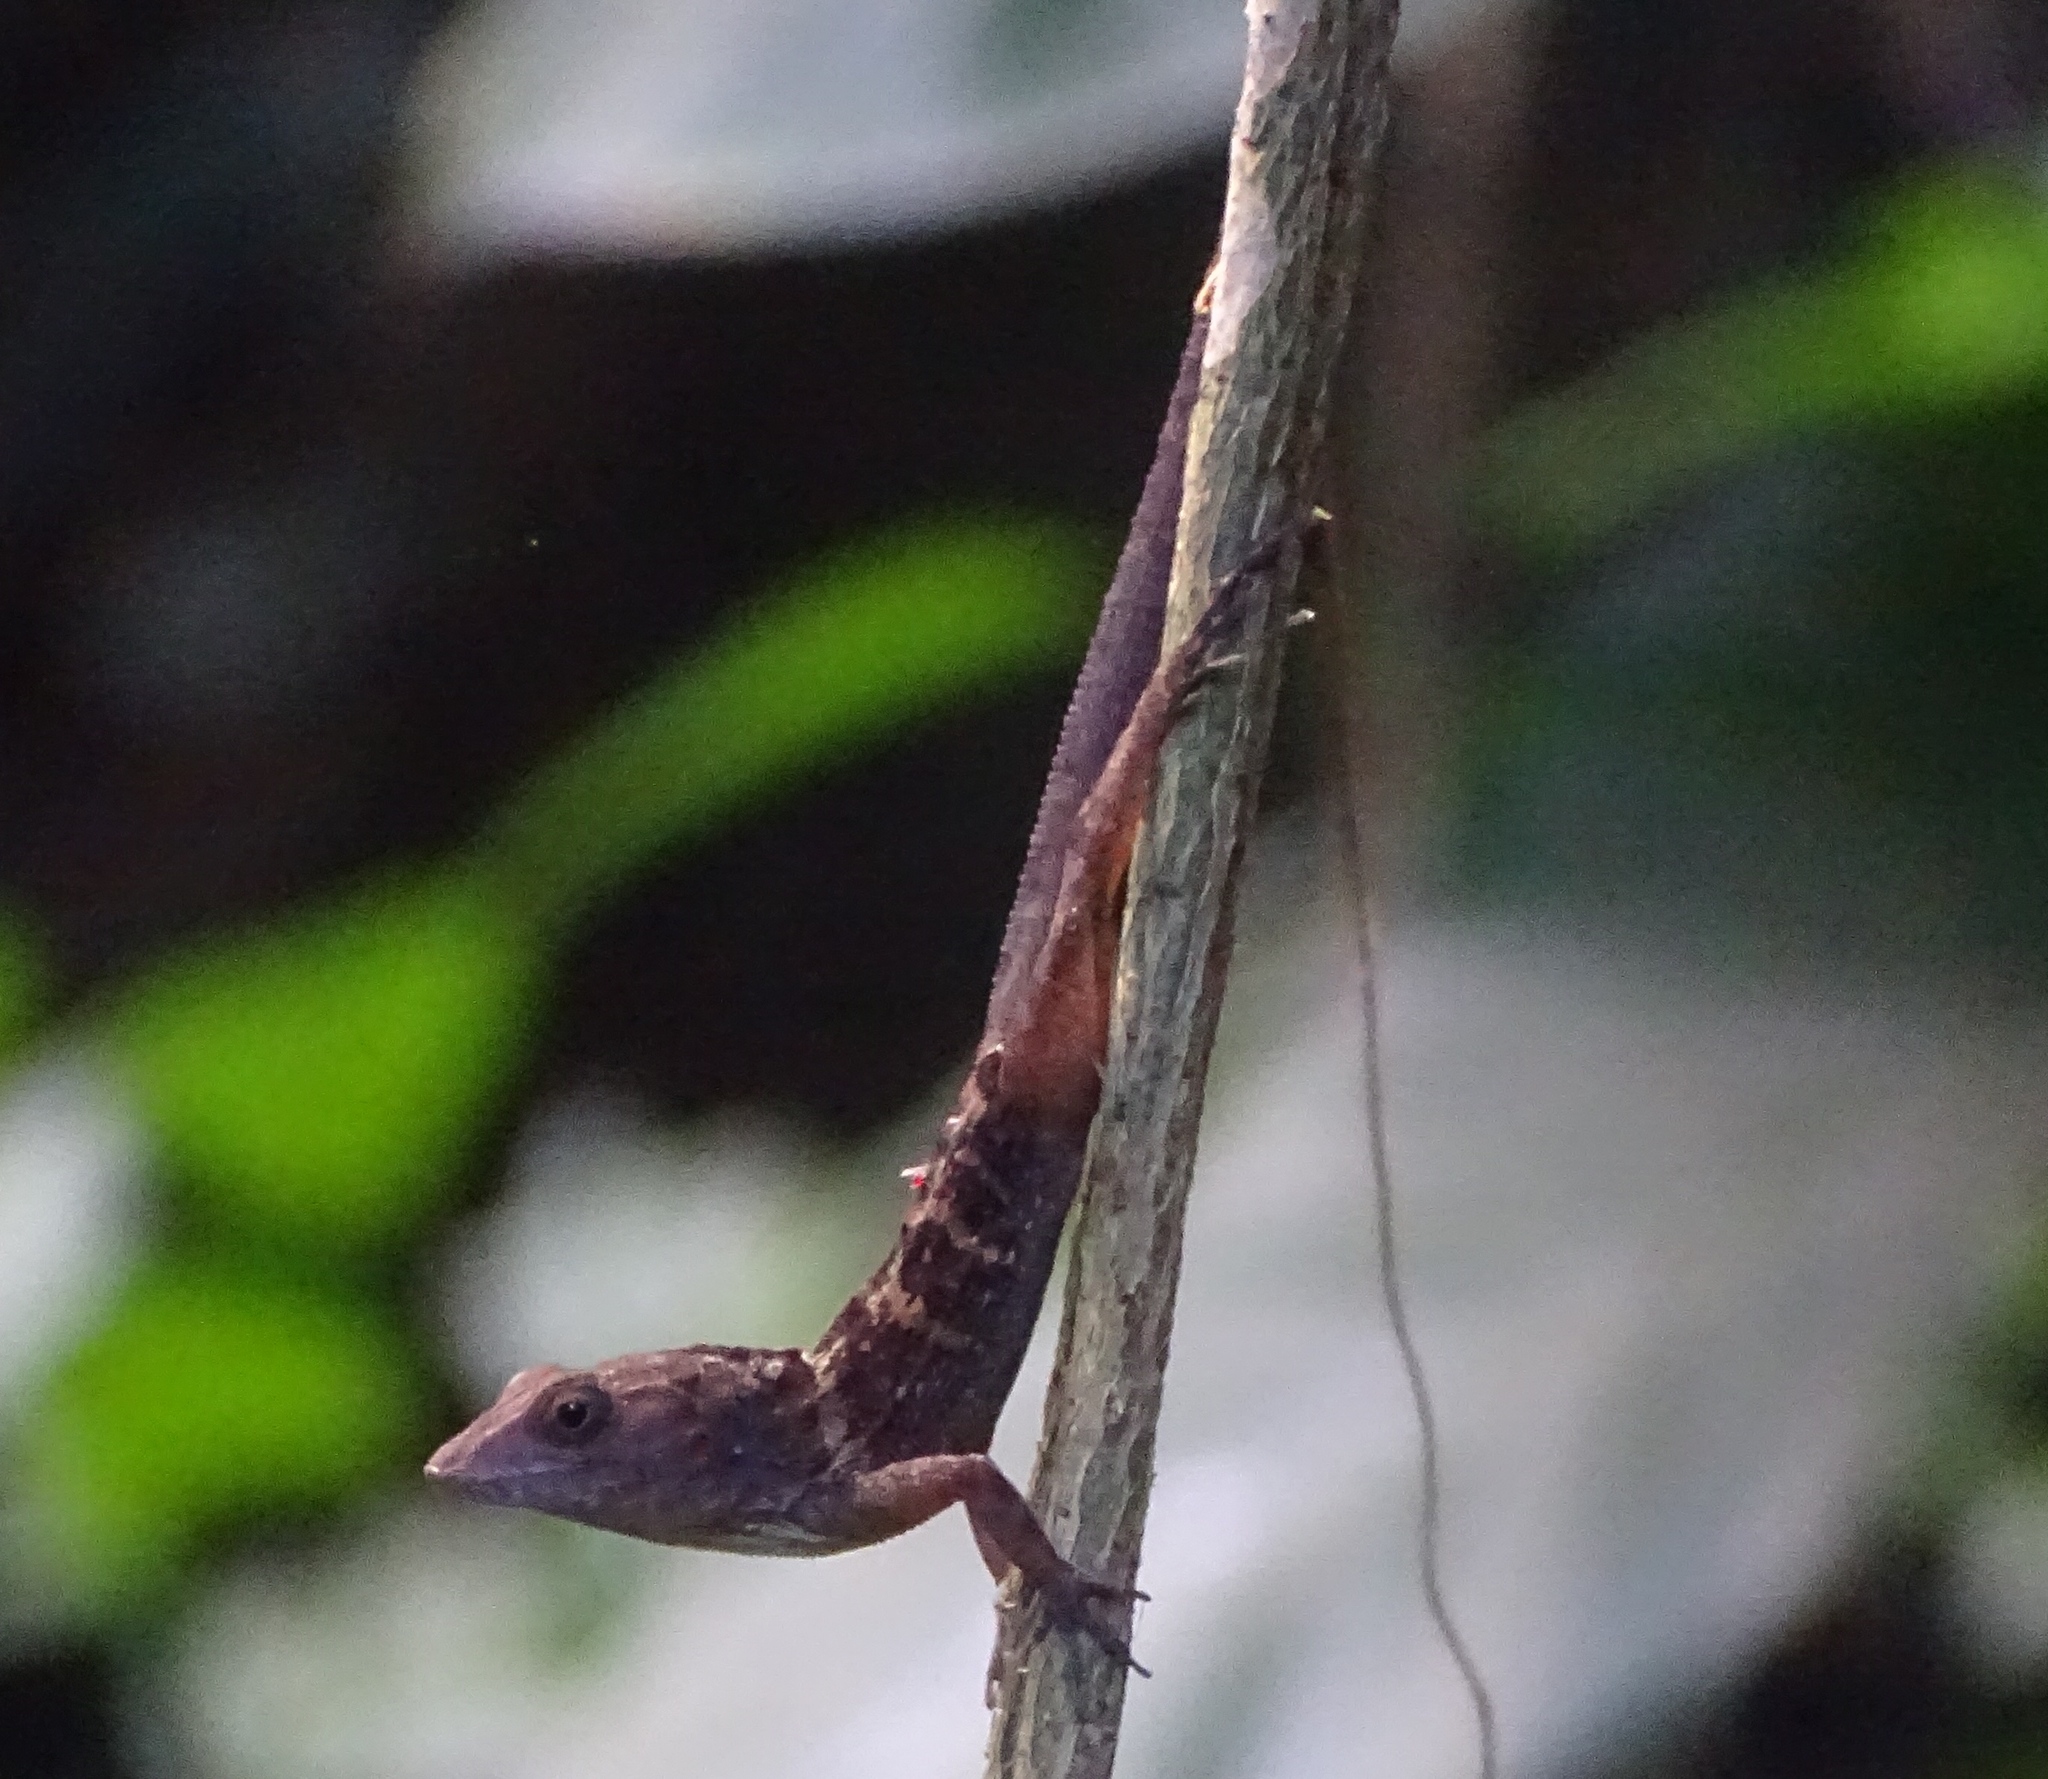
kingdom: Animalia
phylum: Chordata
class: Squamata
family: Dactyloidae
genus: Anolis
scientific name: Anolis hispaniolae
